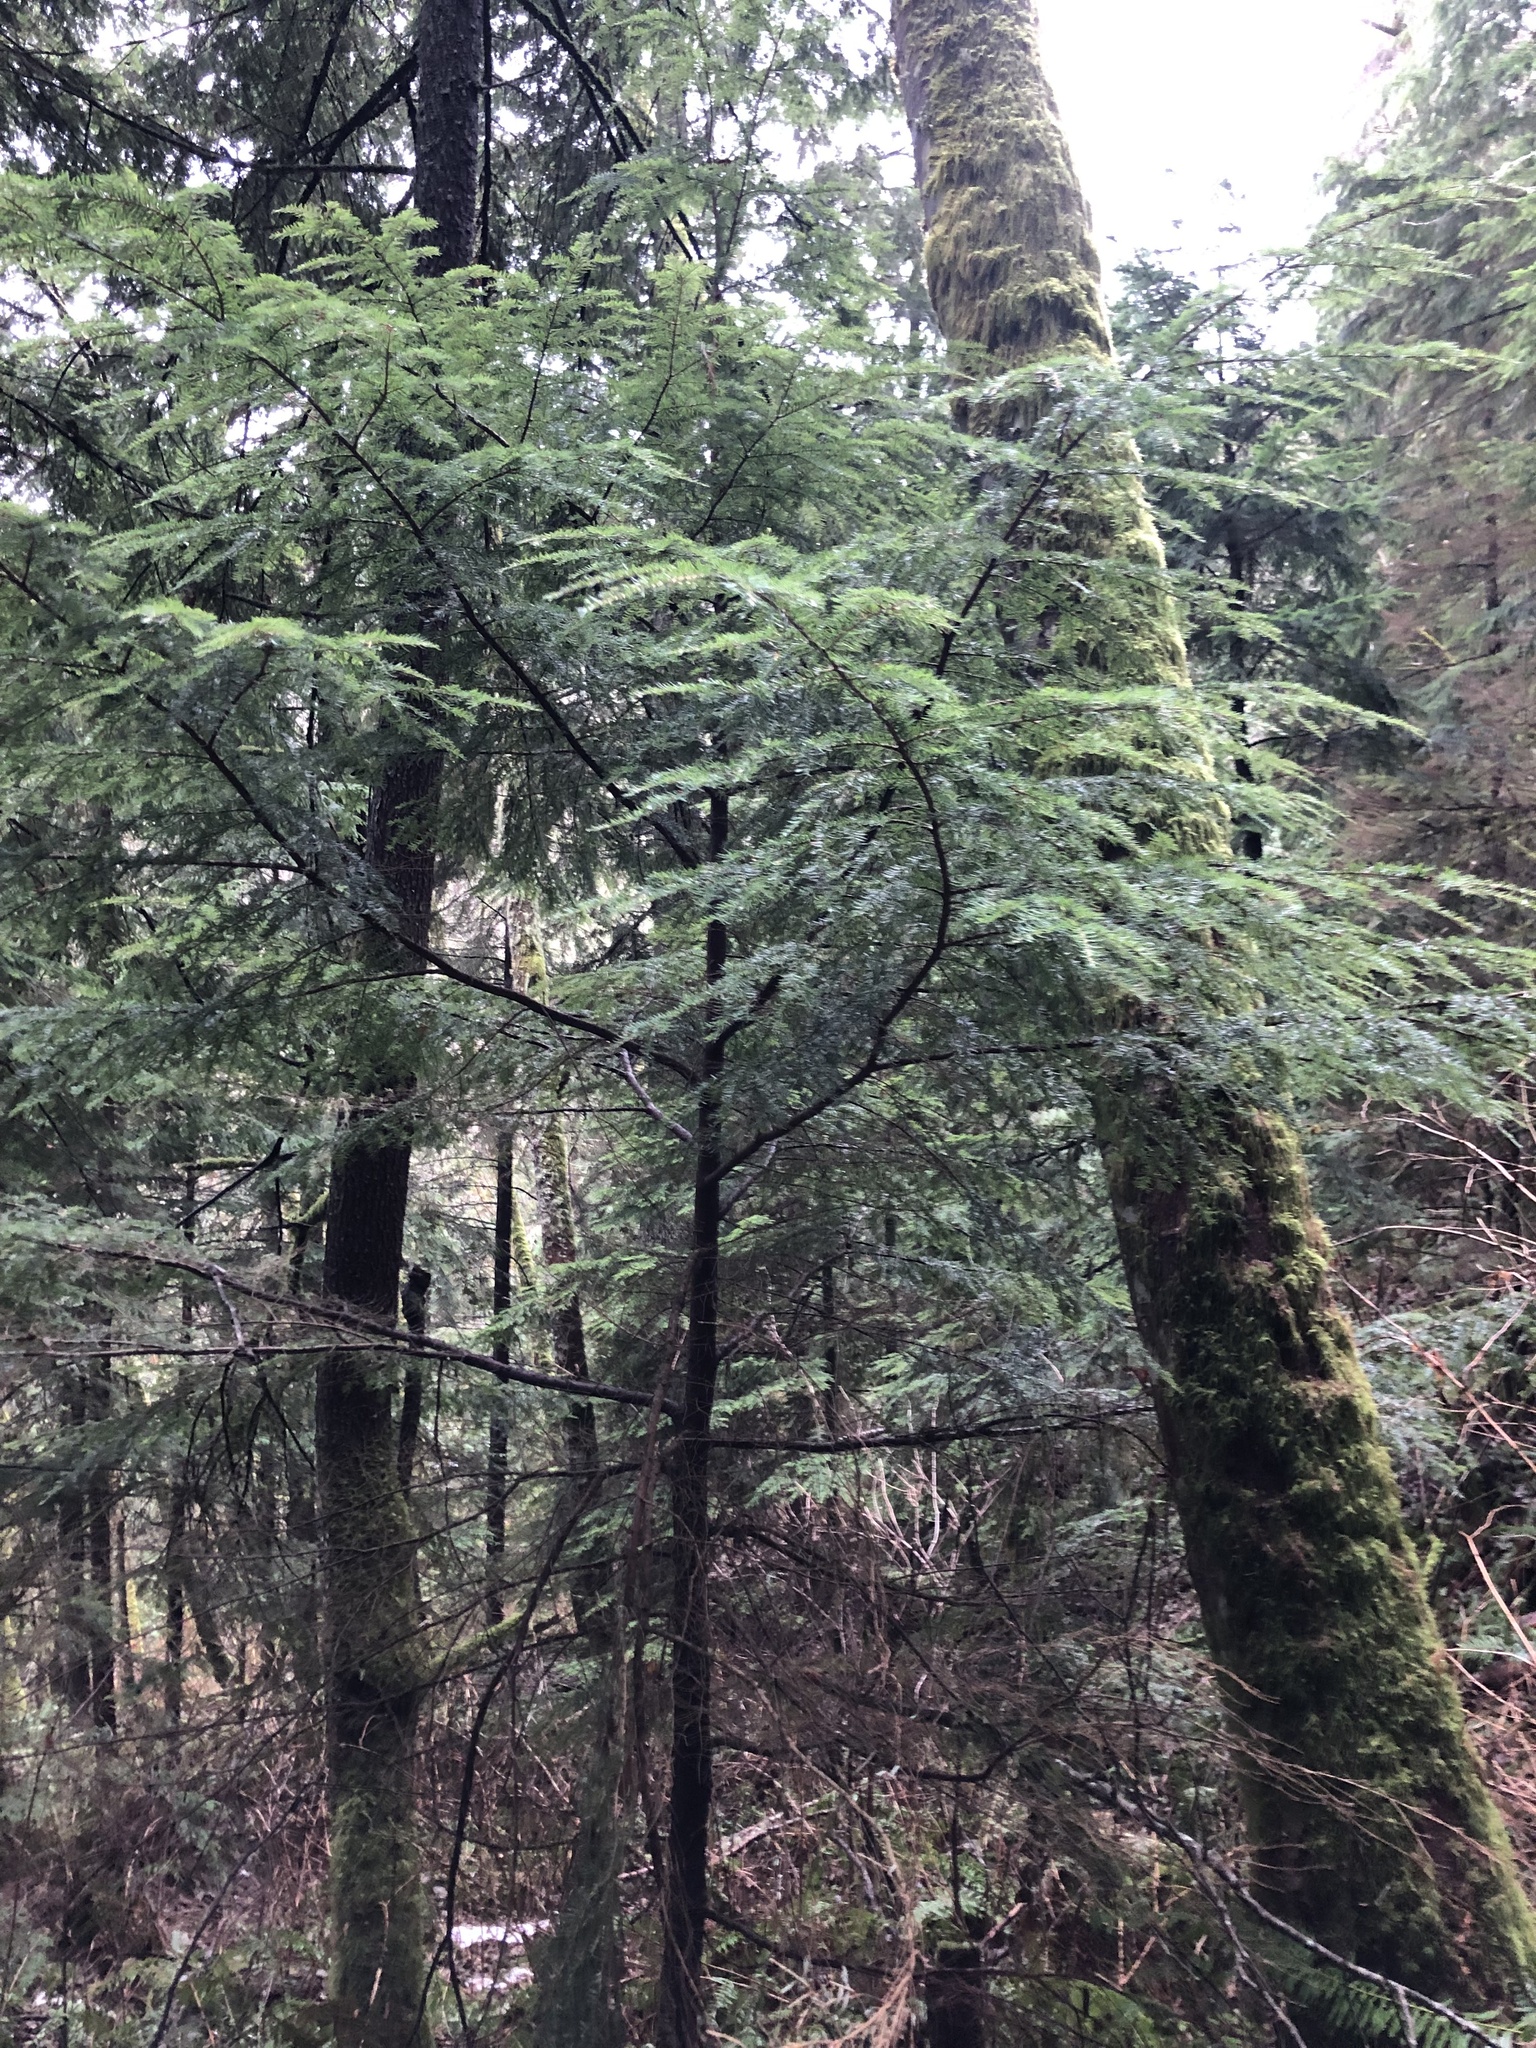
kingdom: Plantae
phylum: Tracheophyta
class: Pinopsida
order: Pinales
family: Pinaceae
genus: Tsuga
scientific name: Tsuga heterophylla
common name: Western hemlock
